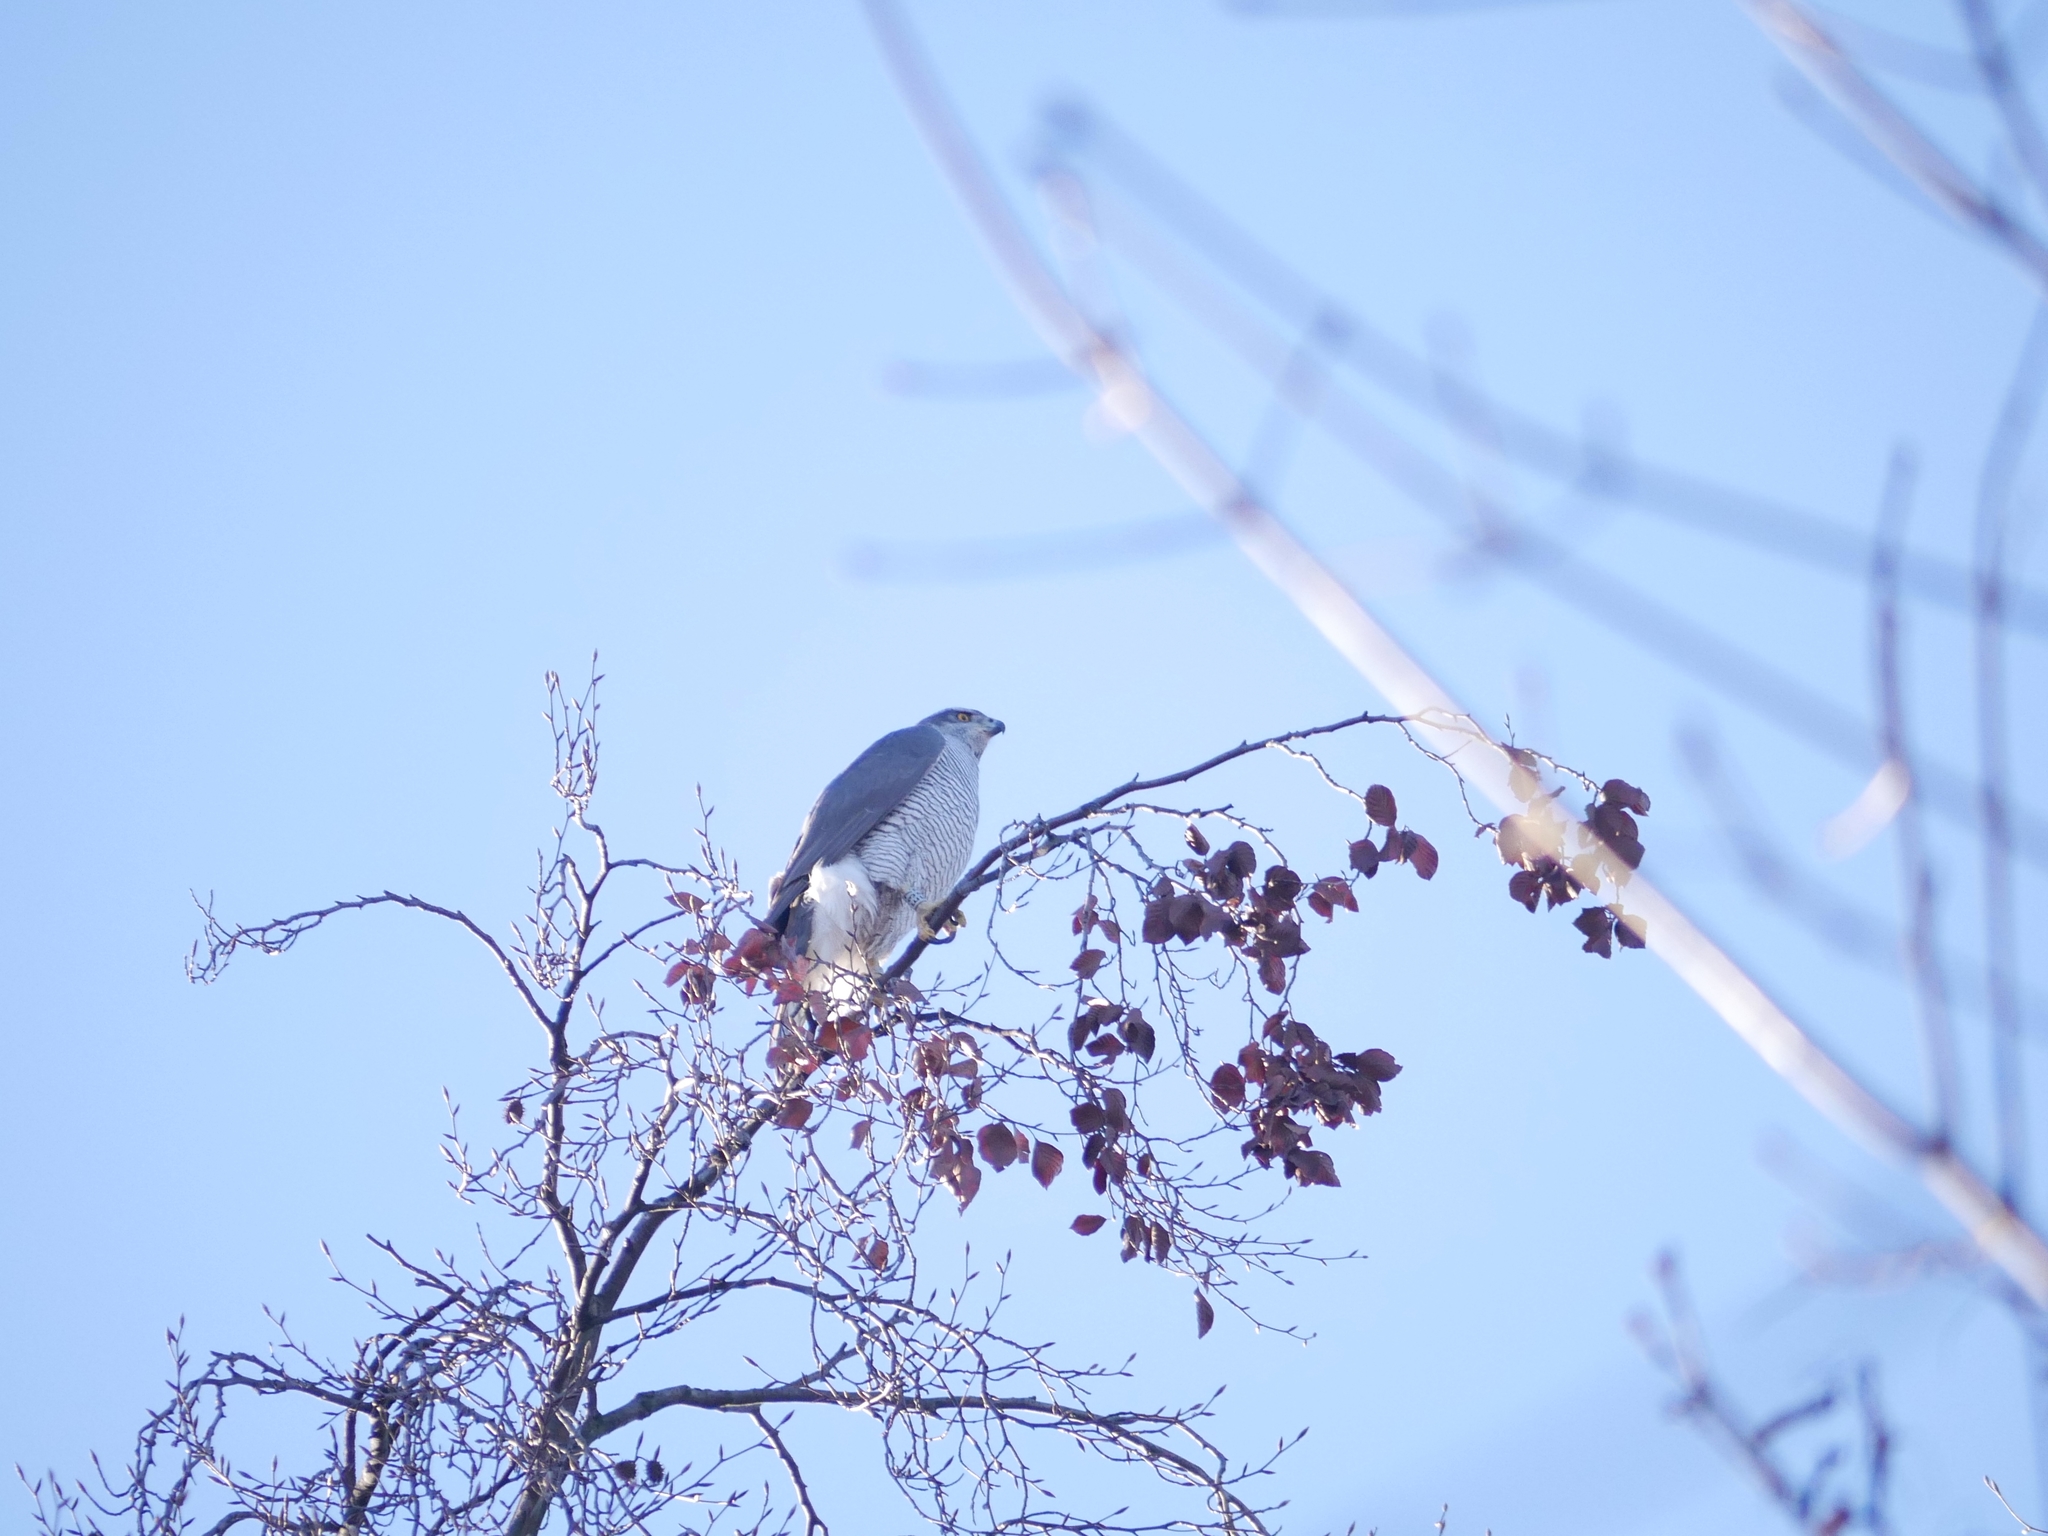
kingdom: Animalia
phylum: Chordata
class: Aves
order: Accipitriformes
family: Accipitridae
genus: Accipiter
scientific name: Accipiter gentilis
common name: Northern goshawk
